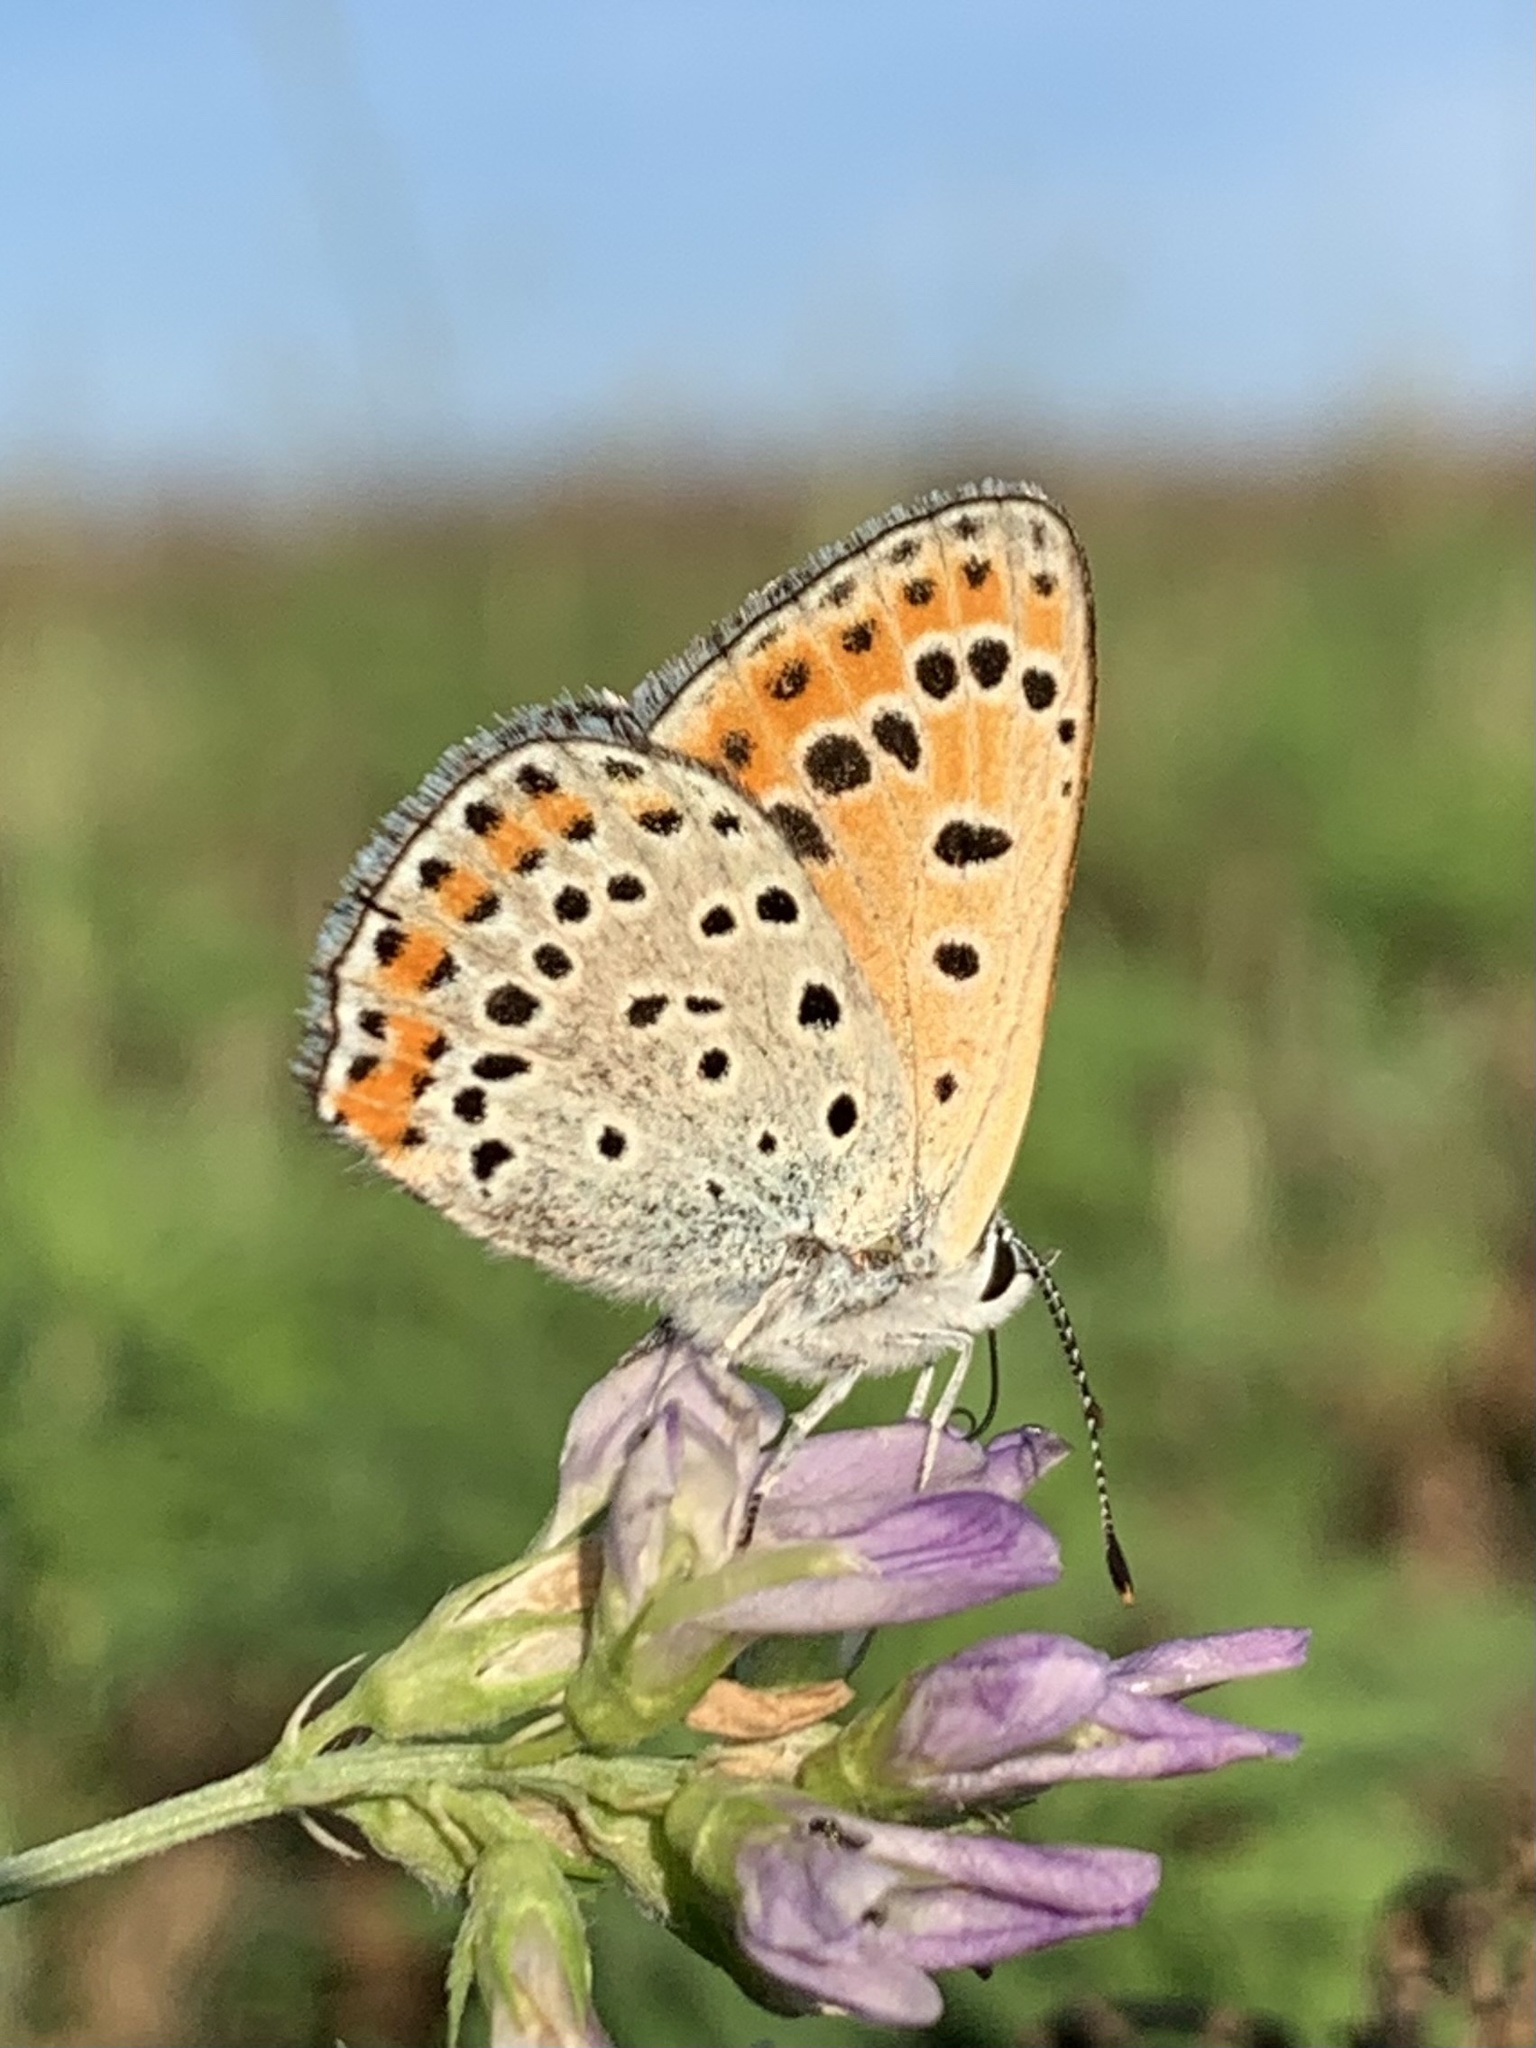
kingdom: Animalia
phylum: Arthropoda
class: Insecta
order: Lepidoptera
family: Lycaenidae
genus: Thersamonia
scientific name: Thersamonia thersamon
